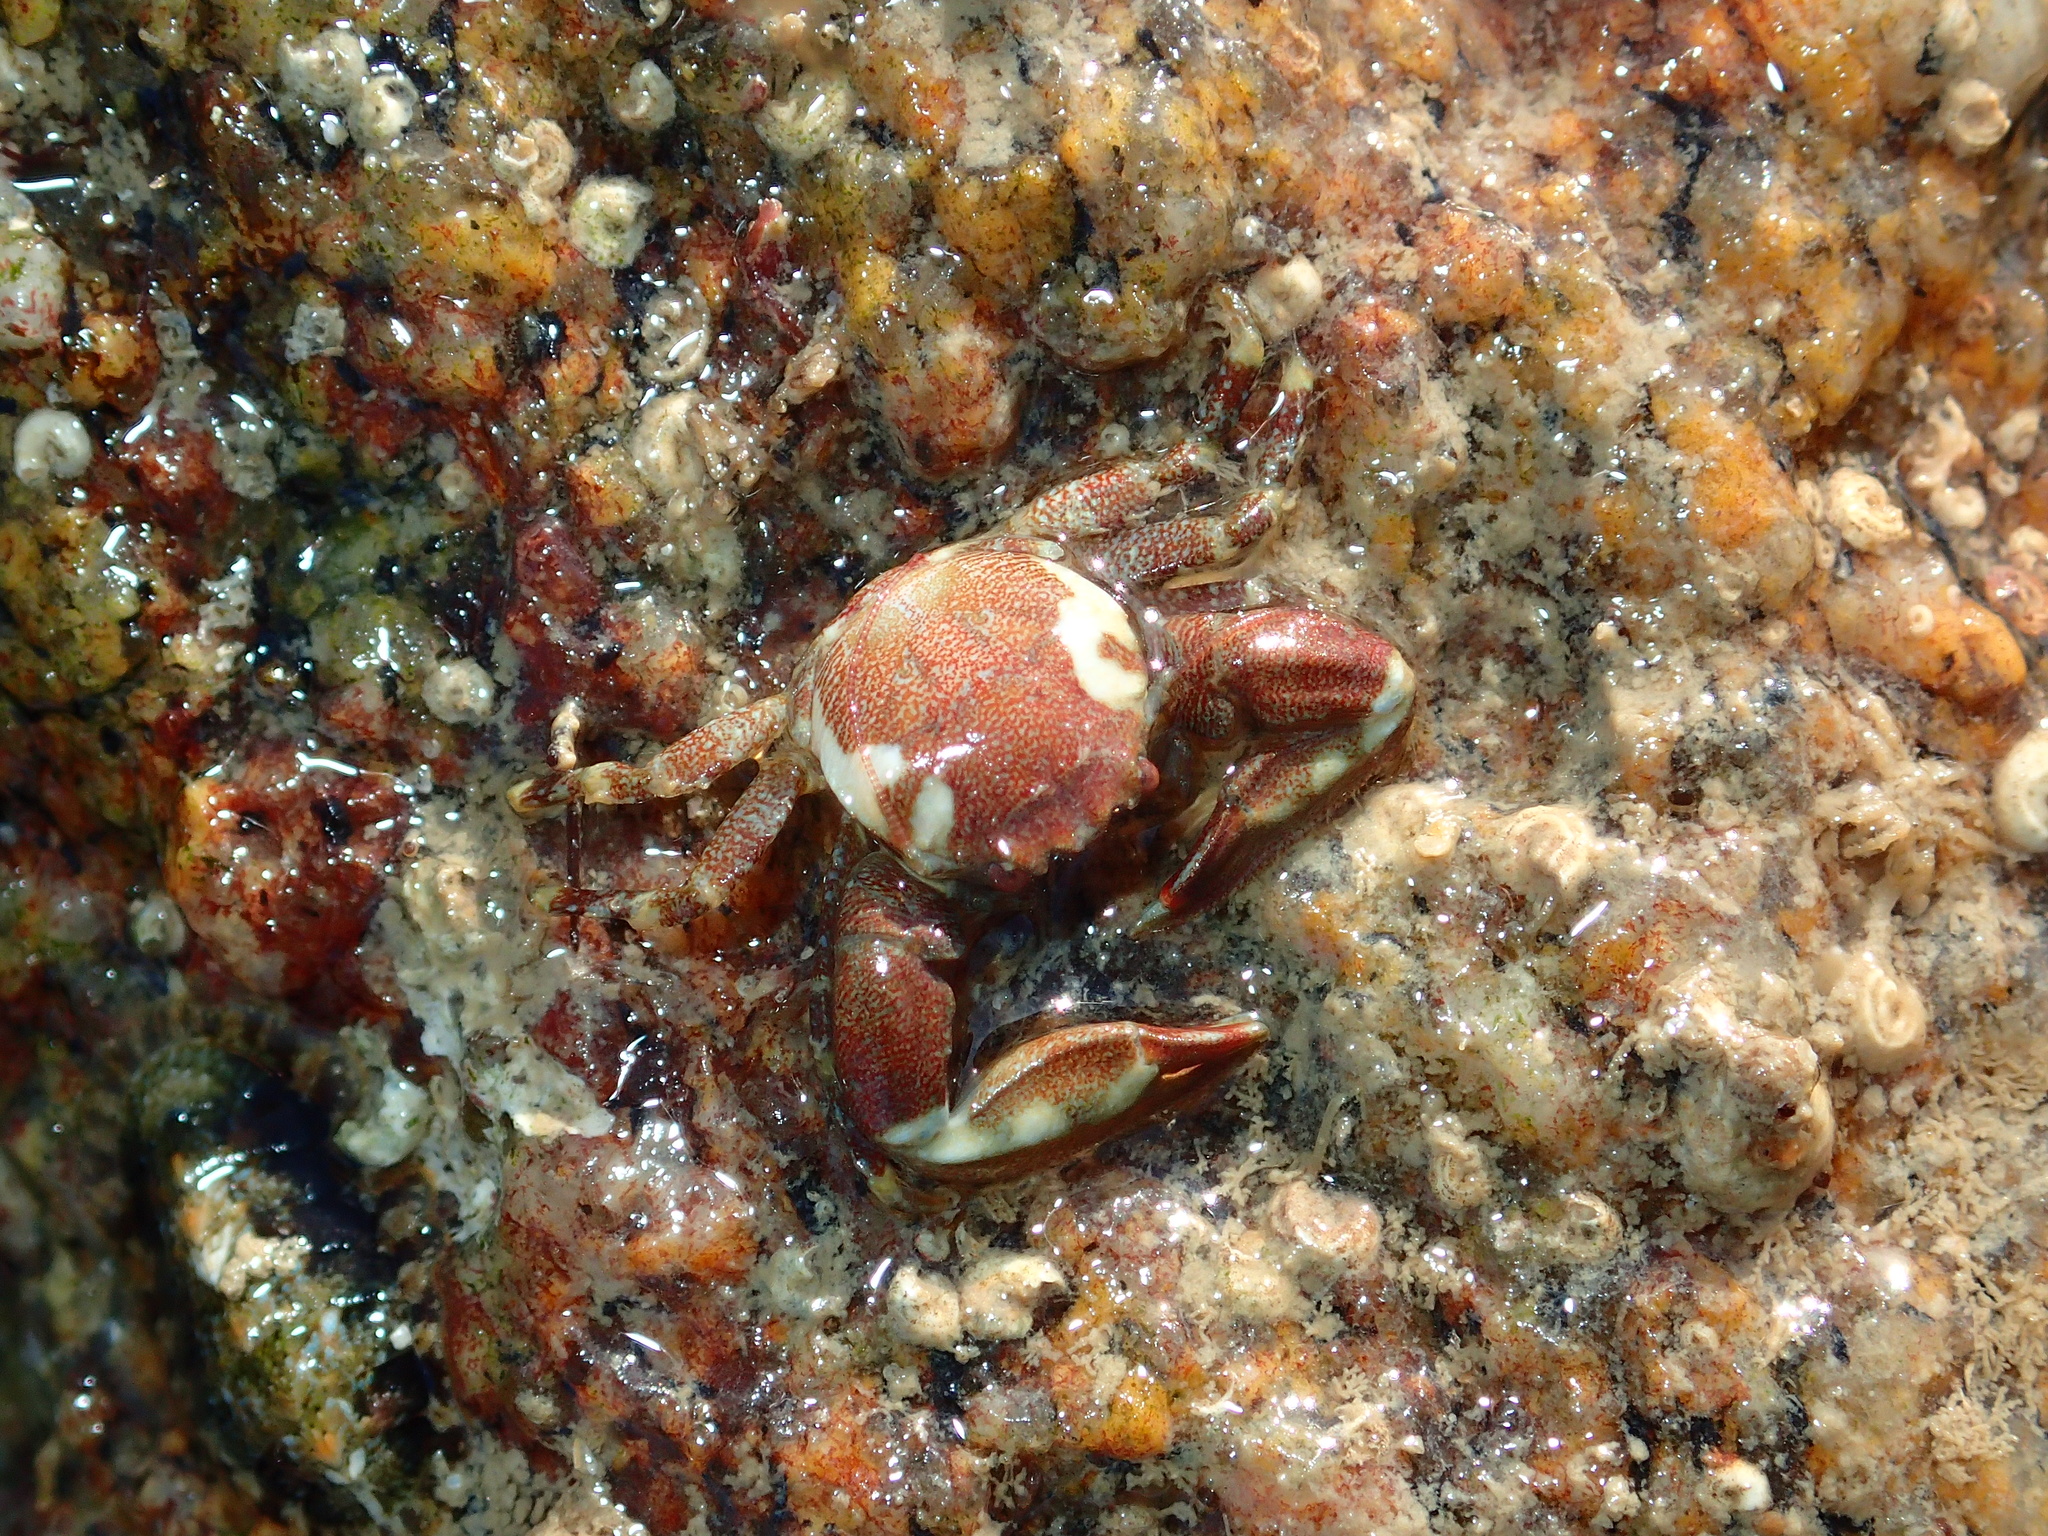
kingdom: Animalia
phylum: Arthropoda
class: Malacostraca
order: Decapoda
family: Porcellanidae
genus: Pisidia
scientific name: Pisidia longicornis
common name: Long clawed porcelain crab
